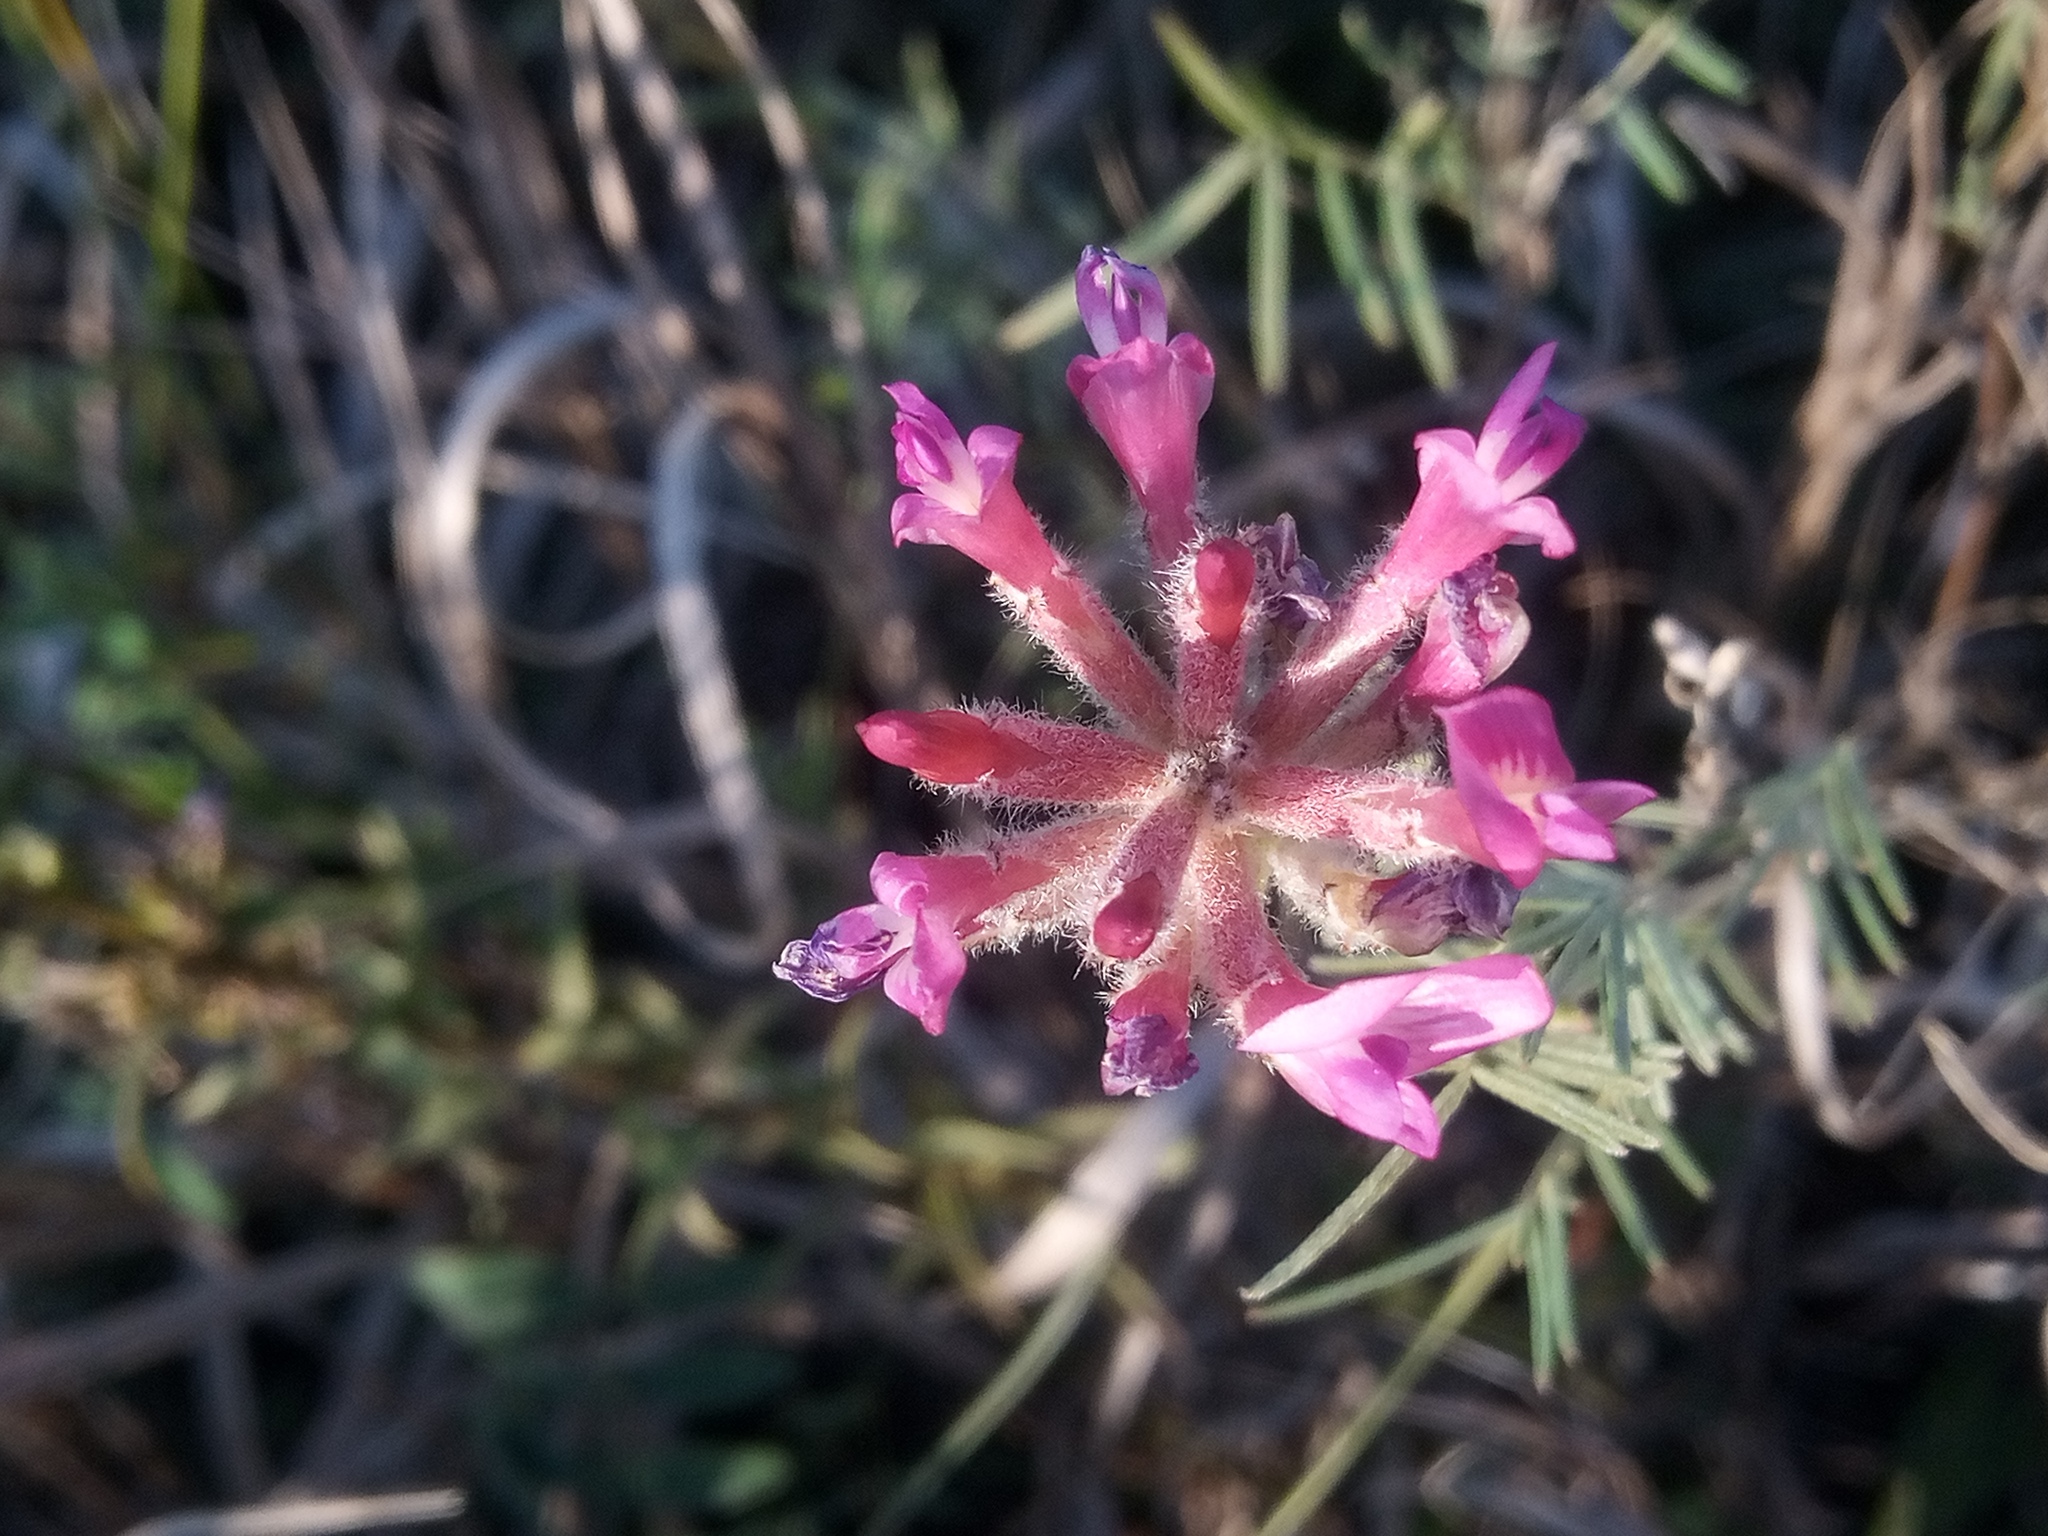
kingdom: Plantae
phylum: Tracheophyta
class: Magnoliopsida
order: Fabales
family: Fabaceae
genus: Astragalus
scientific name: Astragalus cornutus
